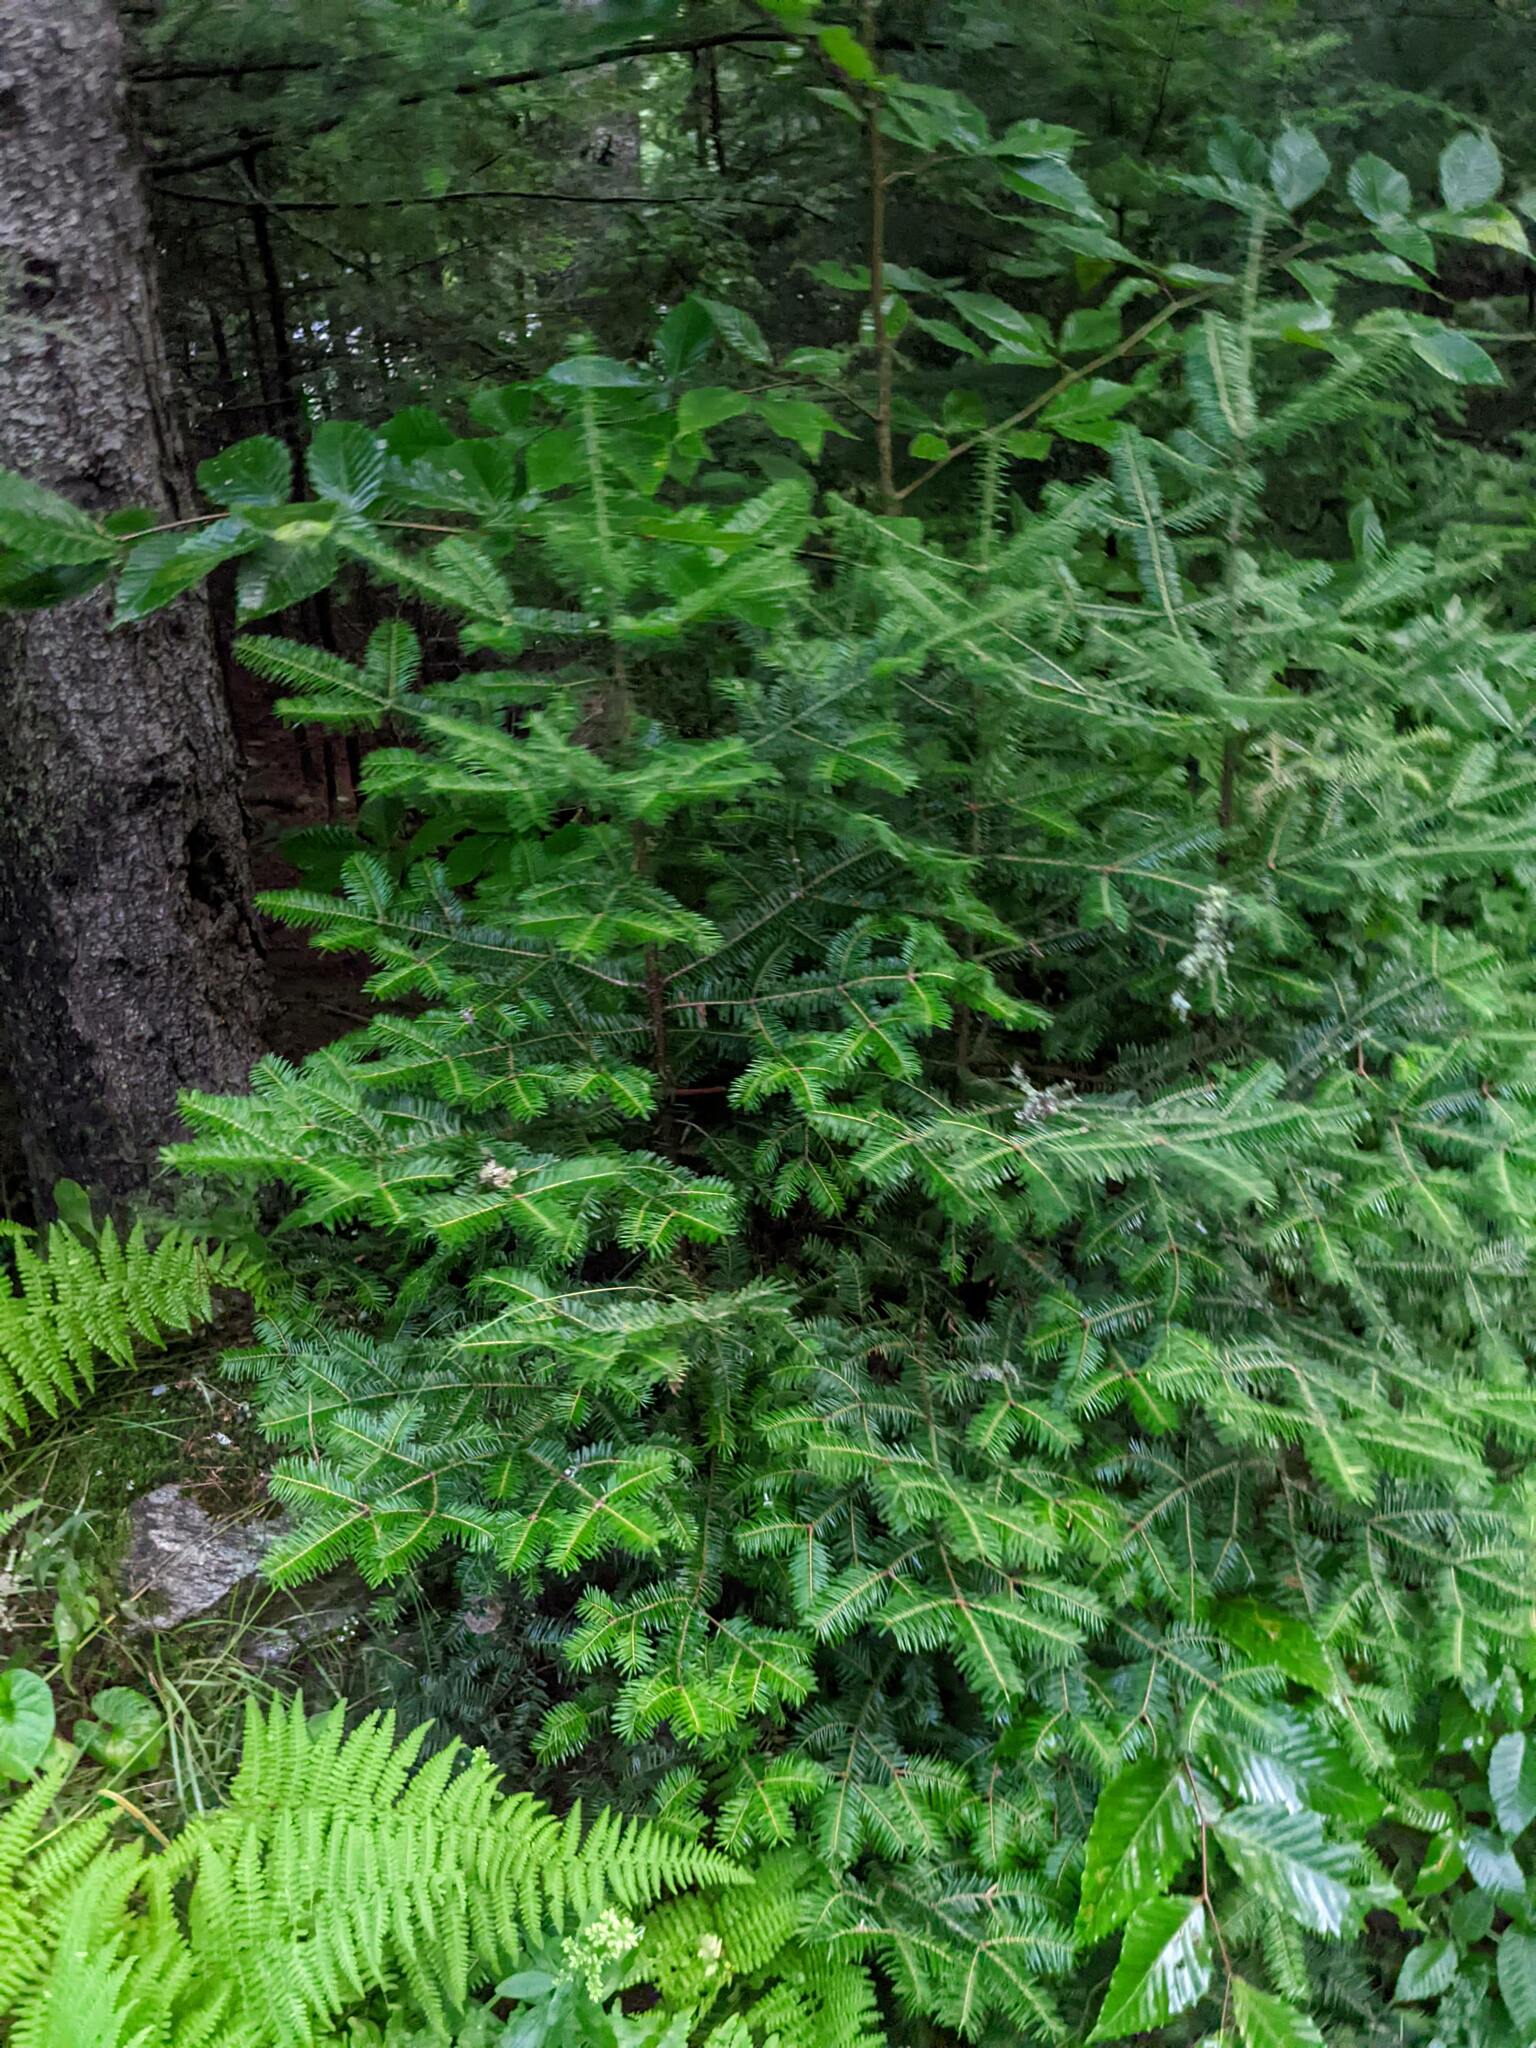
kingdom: Plantae
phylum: Tracheophyta
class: Pinopsida
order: Pinales
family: Pinaceae
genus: Abies
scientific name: Abies balsamea
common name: Balsam fir
